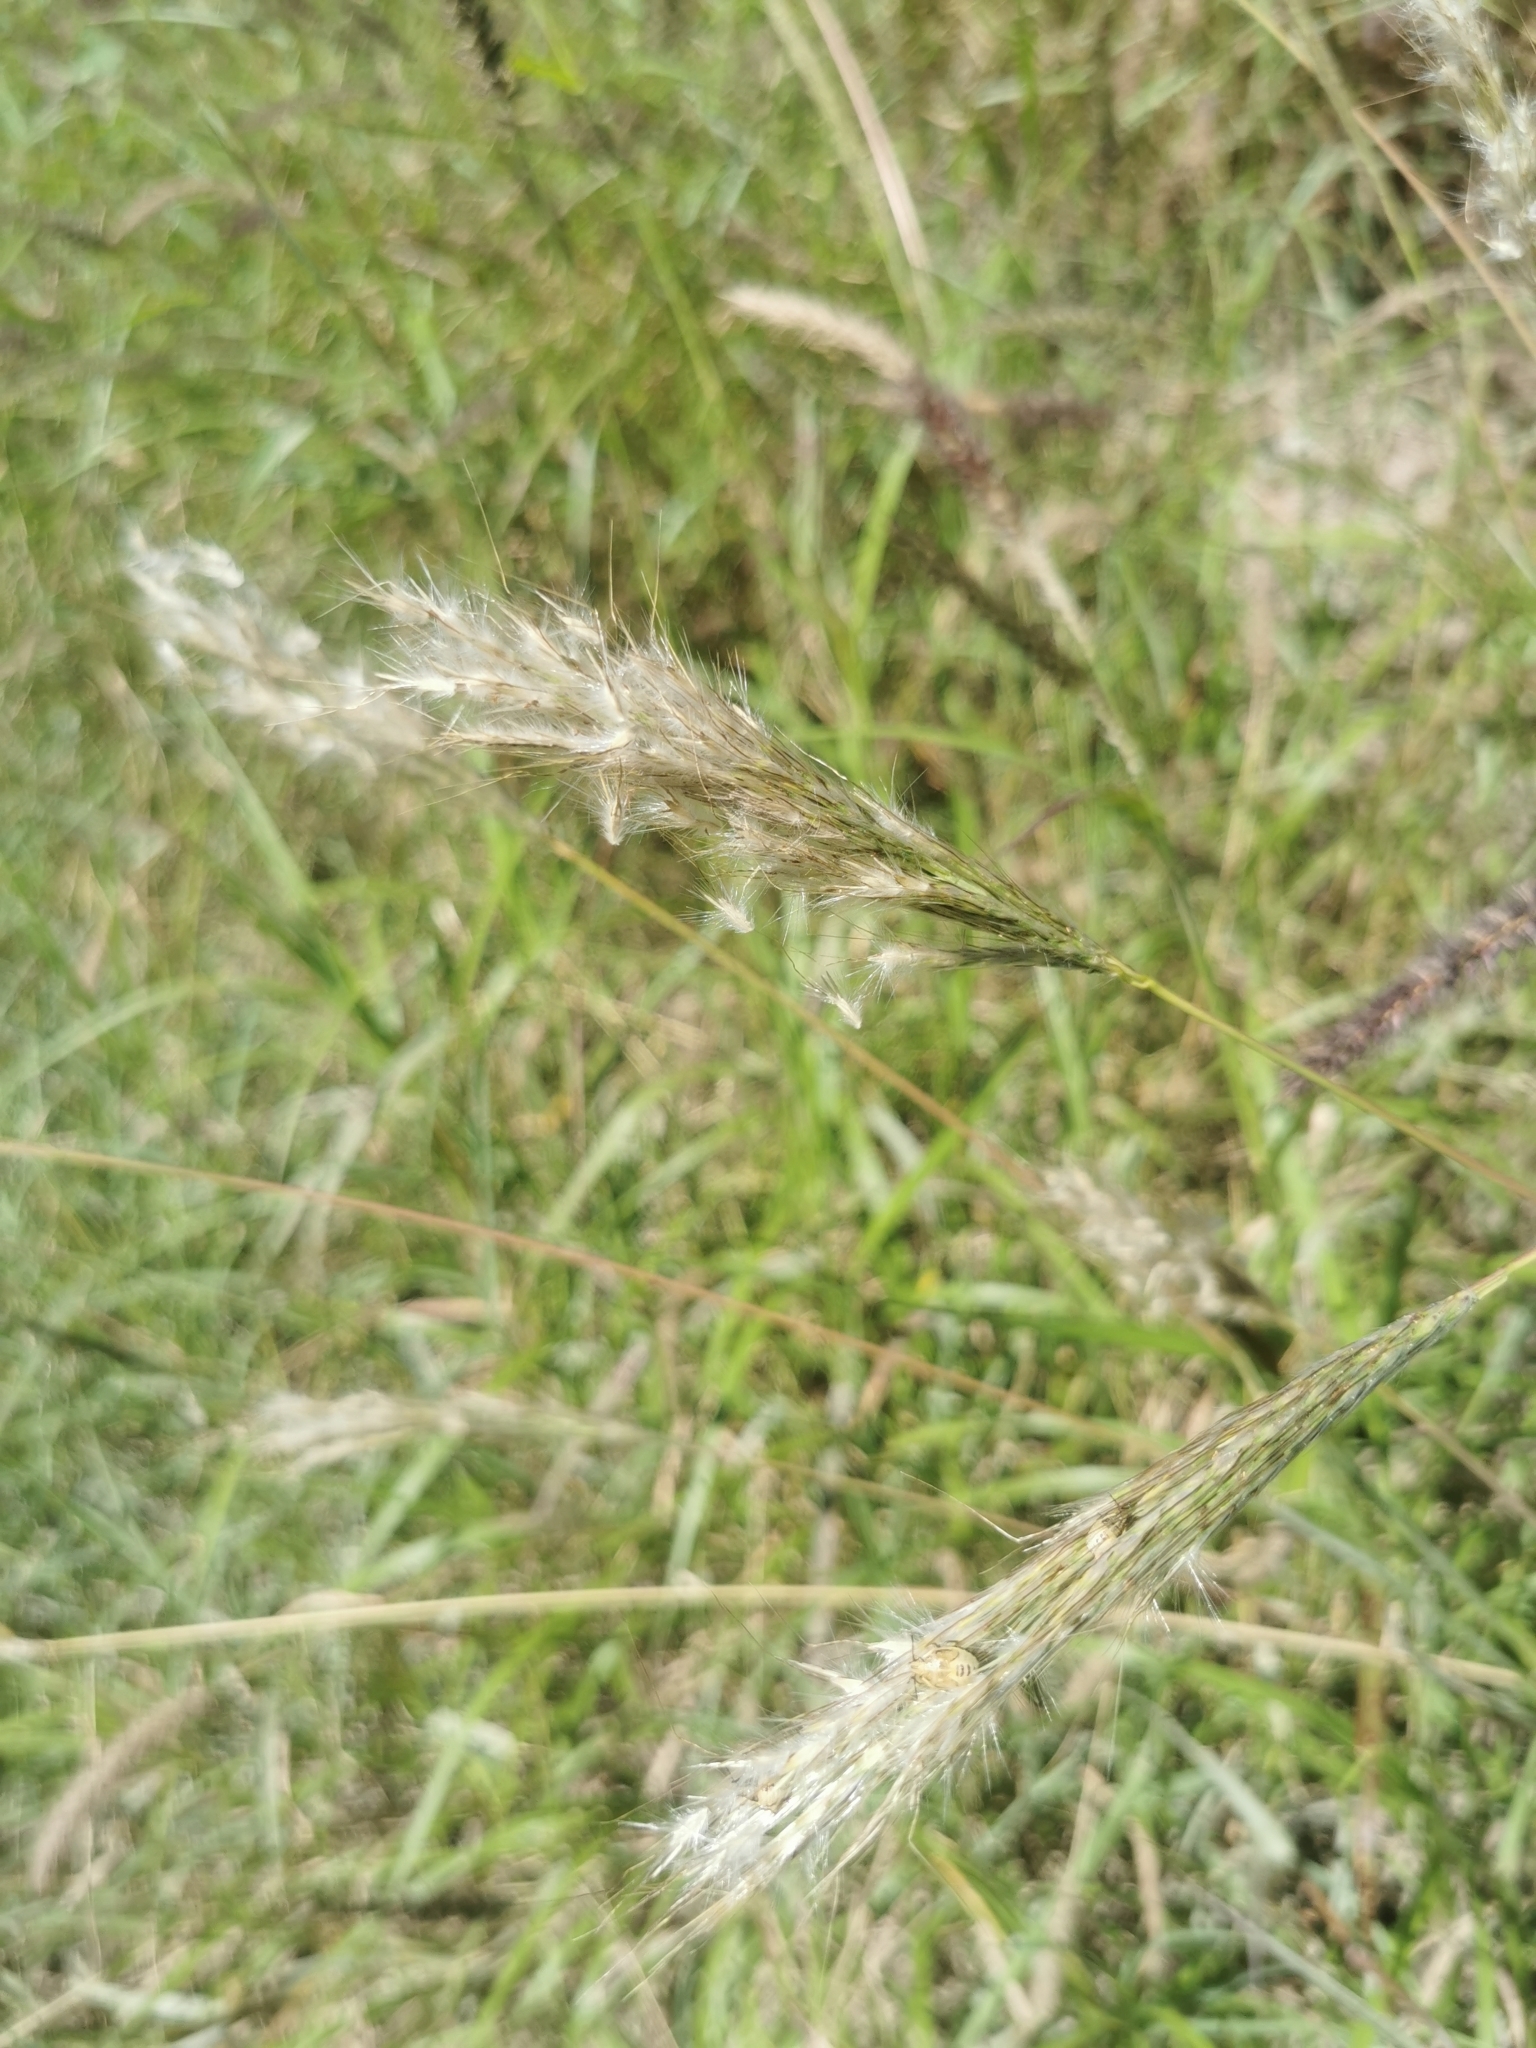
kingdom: Plantae
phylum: Tracheophyta
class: Liliopsida
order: Poales
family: Poaceae
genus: Bothriochloa
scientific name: Bothriochloa barbinodis
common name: Cane bluestem
